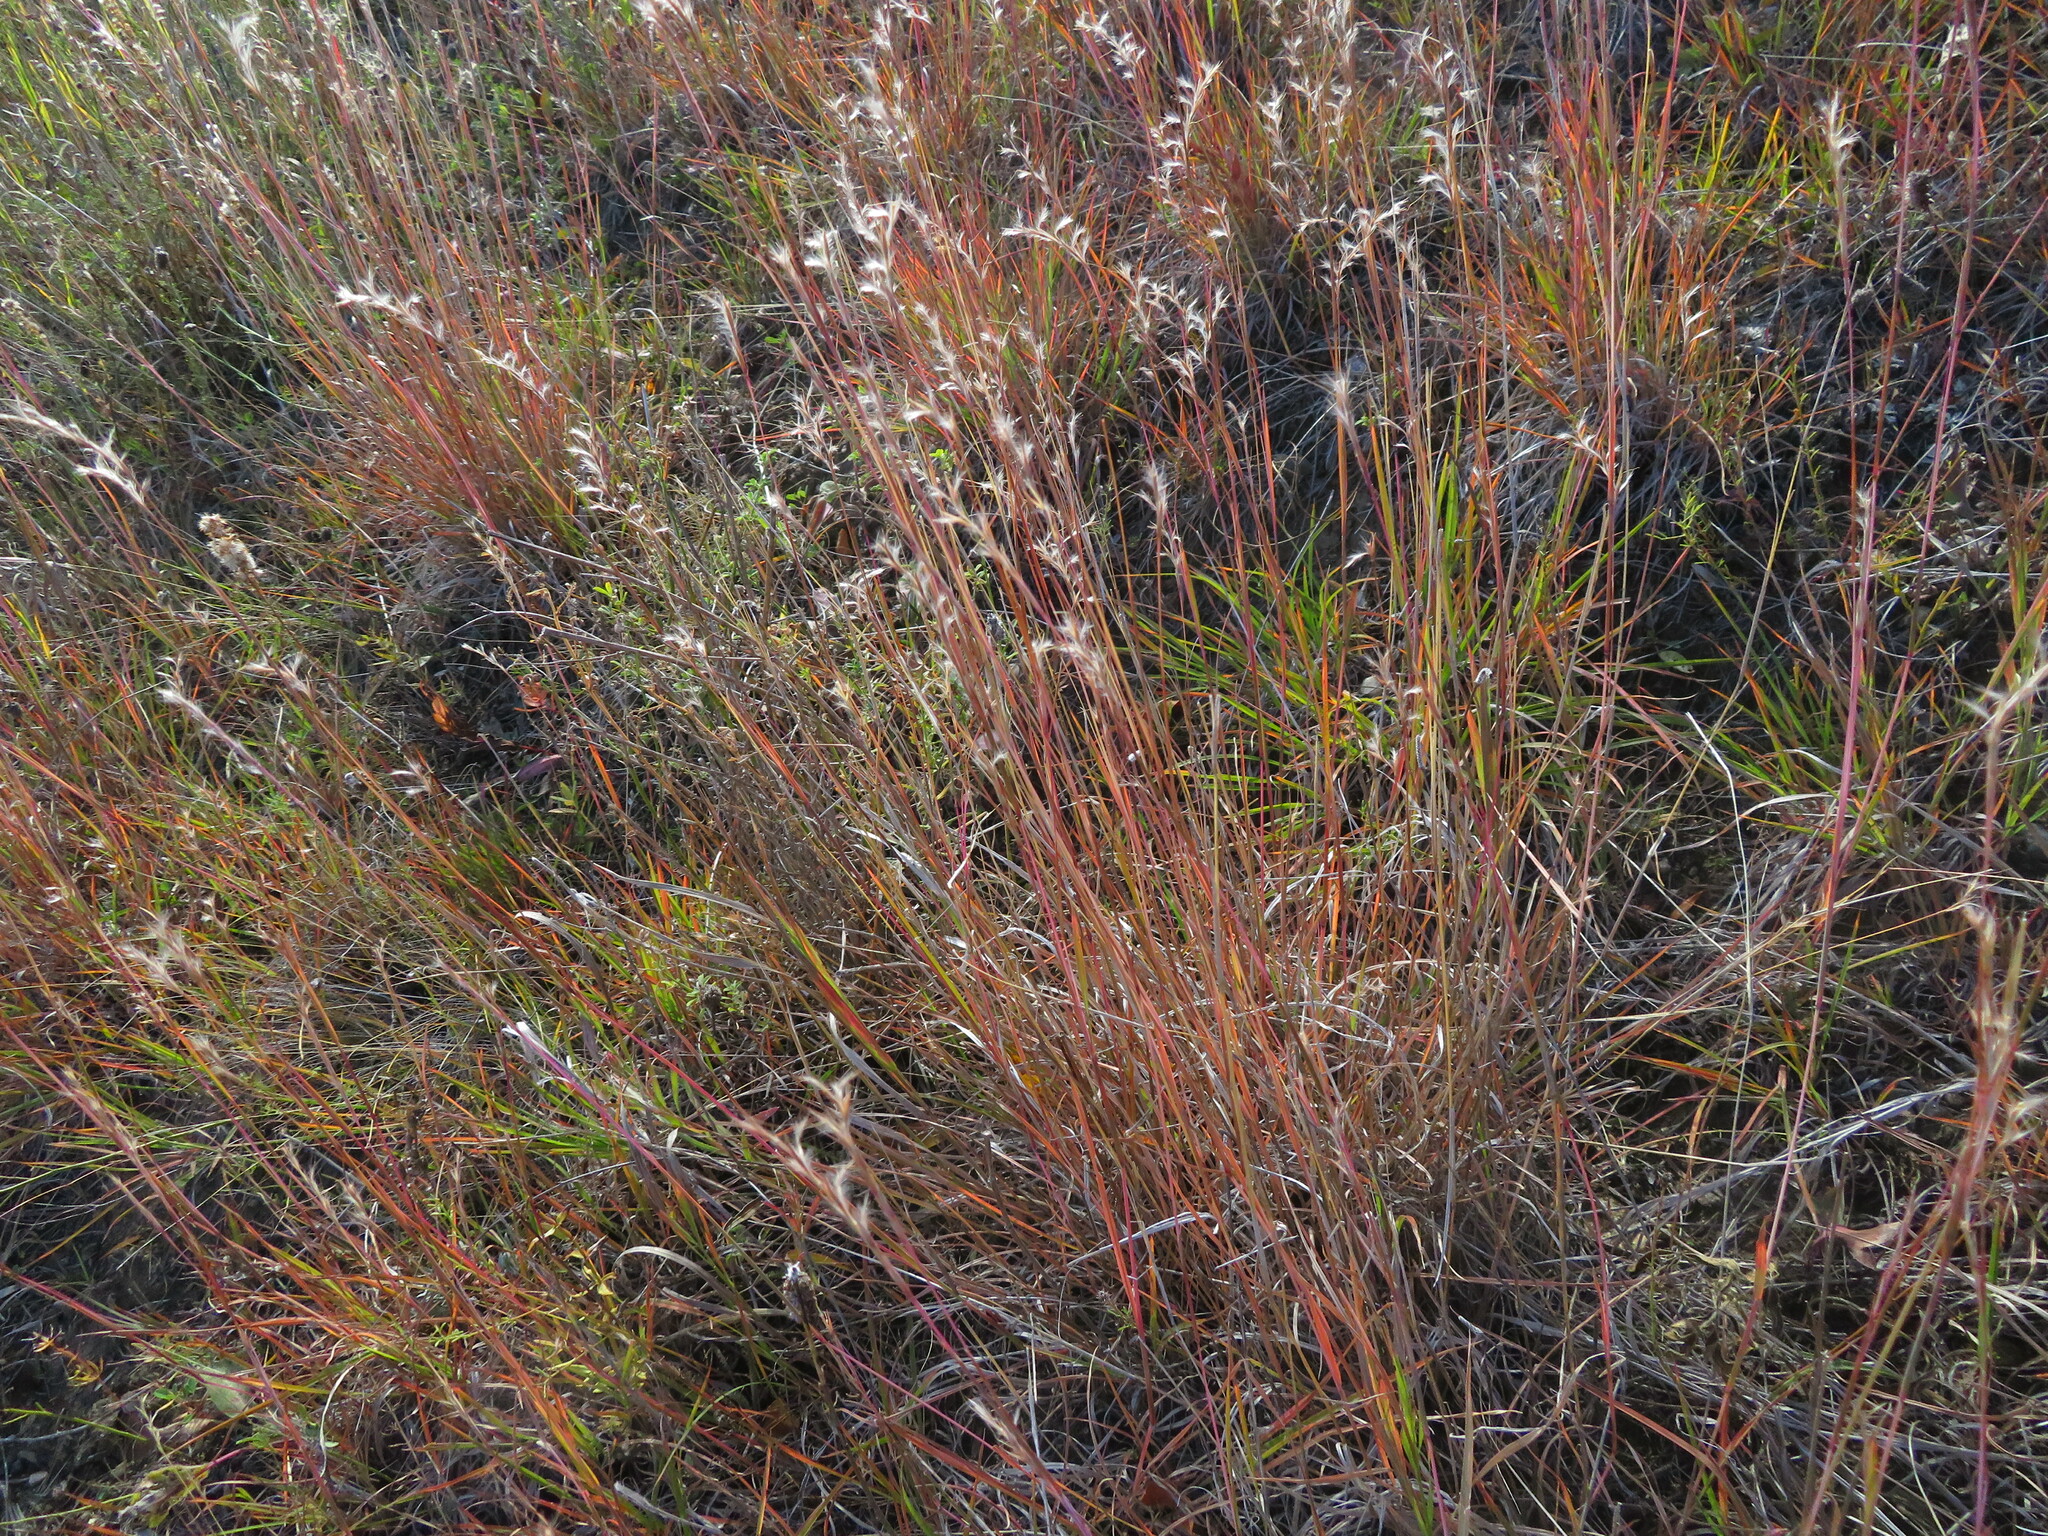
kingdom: Plantae
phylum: Tracheophyta
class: Liliopsida
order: Poales
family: Poaceae
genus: Schizachyrium
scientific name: Schizachyrium scoparium
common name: Little bluestem
